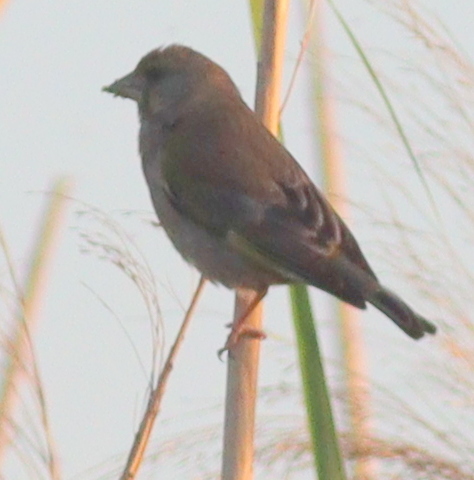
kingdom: Plantae
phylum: Tracheophyta
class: Liliopsida
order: Poales
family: Poaceae
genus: Chloris
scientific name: Chloris chloris
